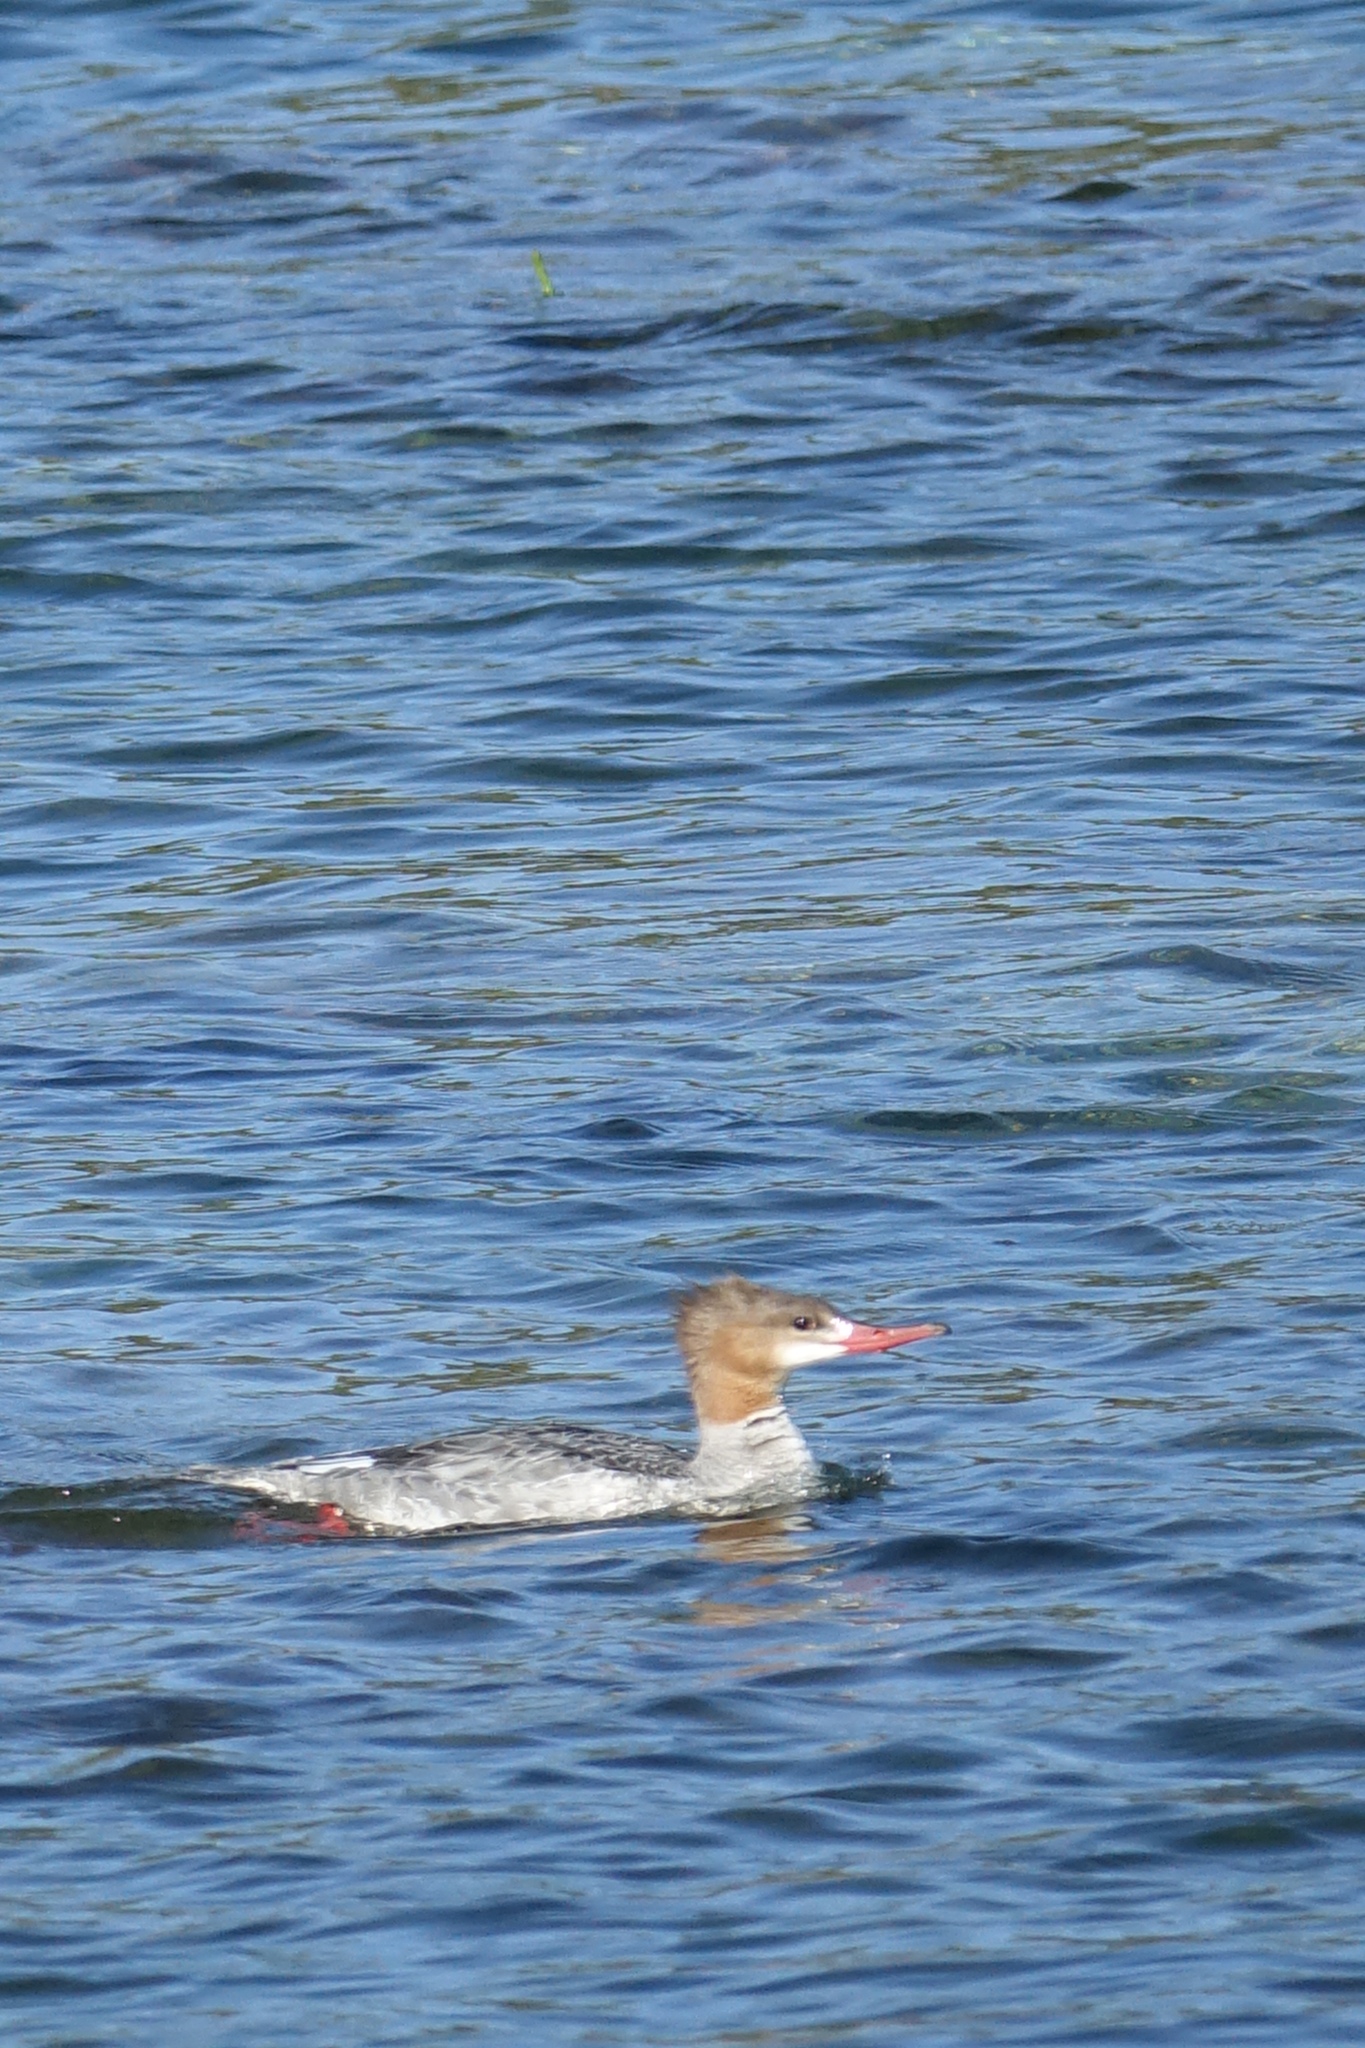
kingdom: Animalia
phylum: Chordata
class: Aves
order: Anseriformes
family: Anatidae
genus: Mergus
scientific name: Mergus merganser
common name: Common merganser
